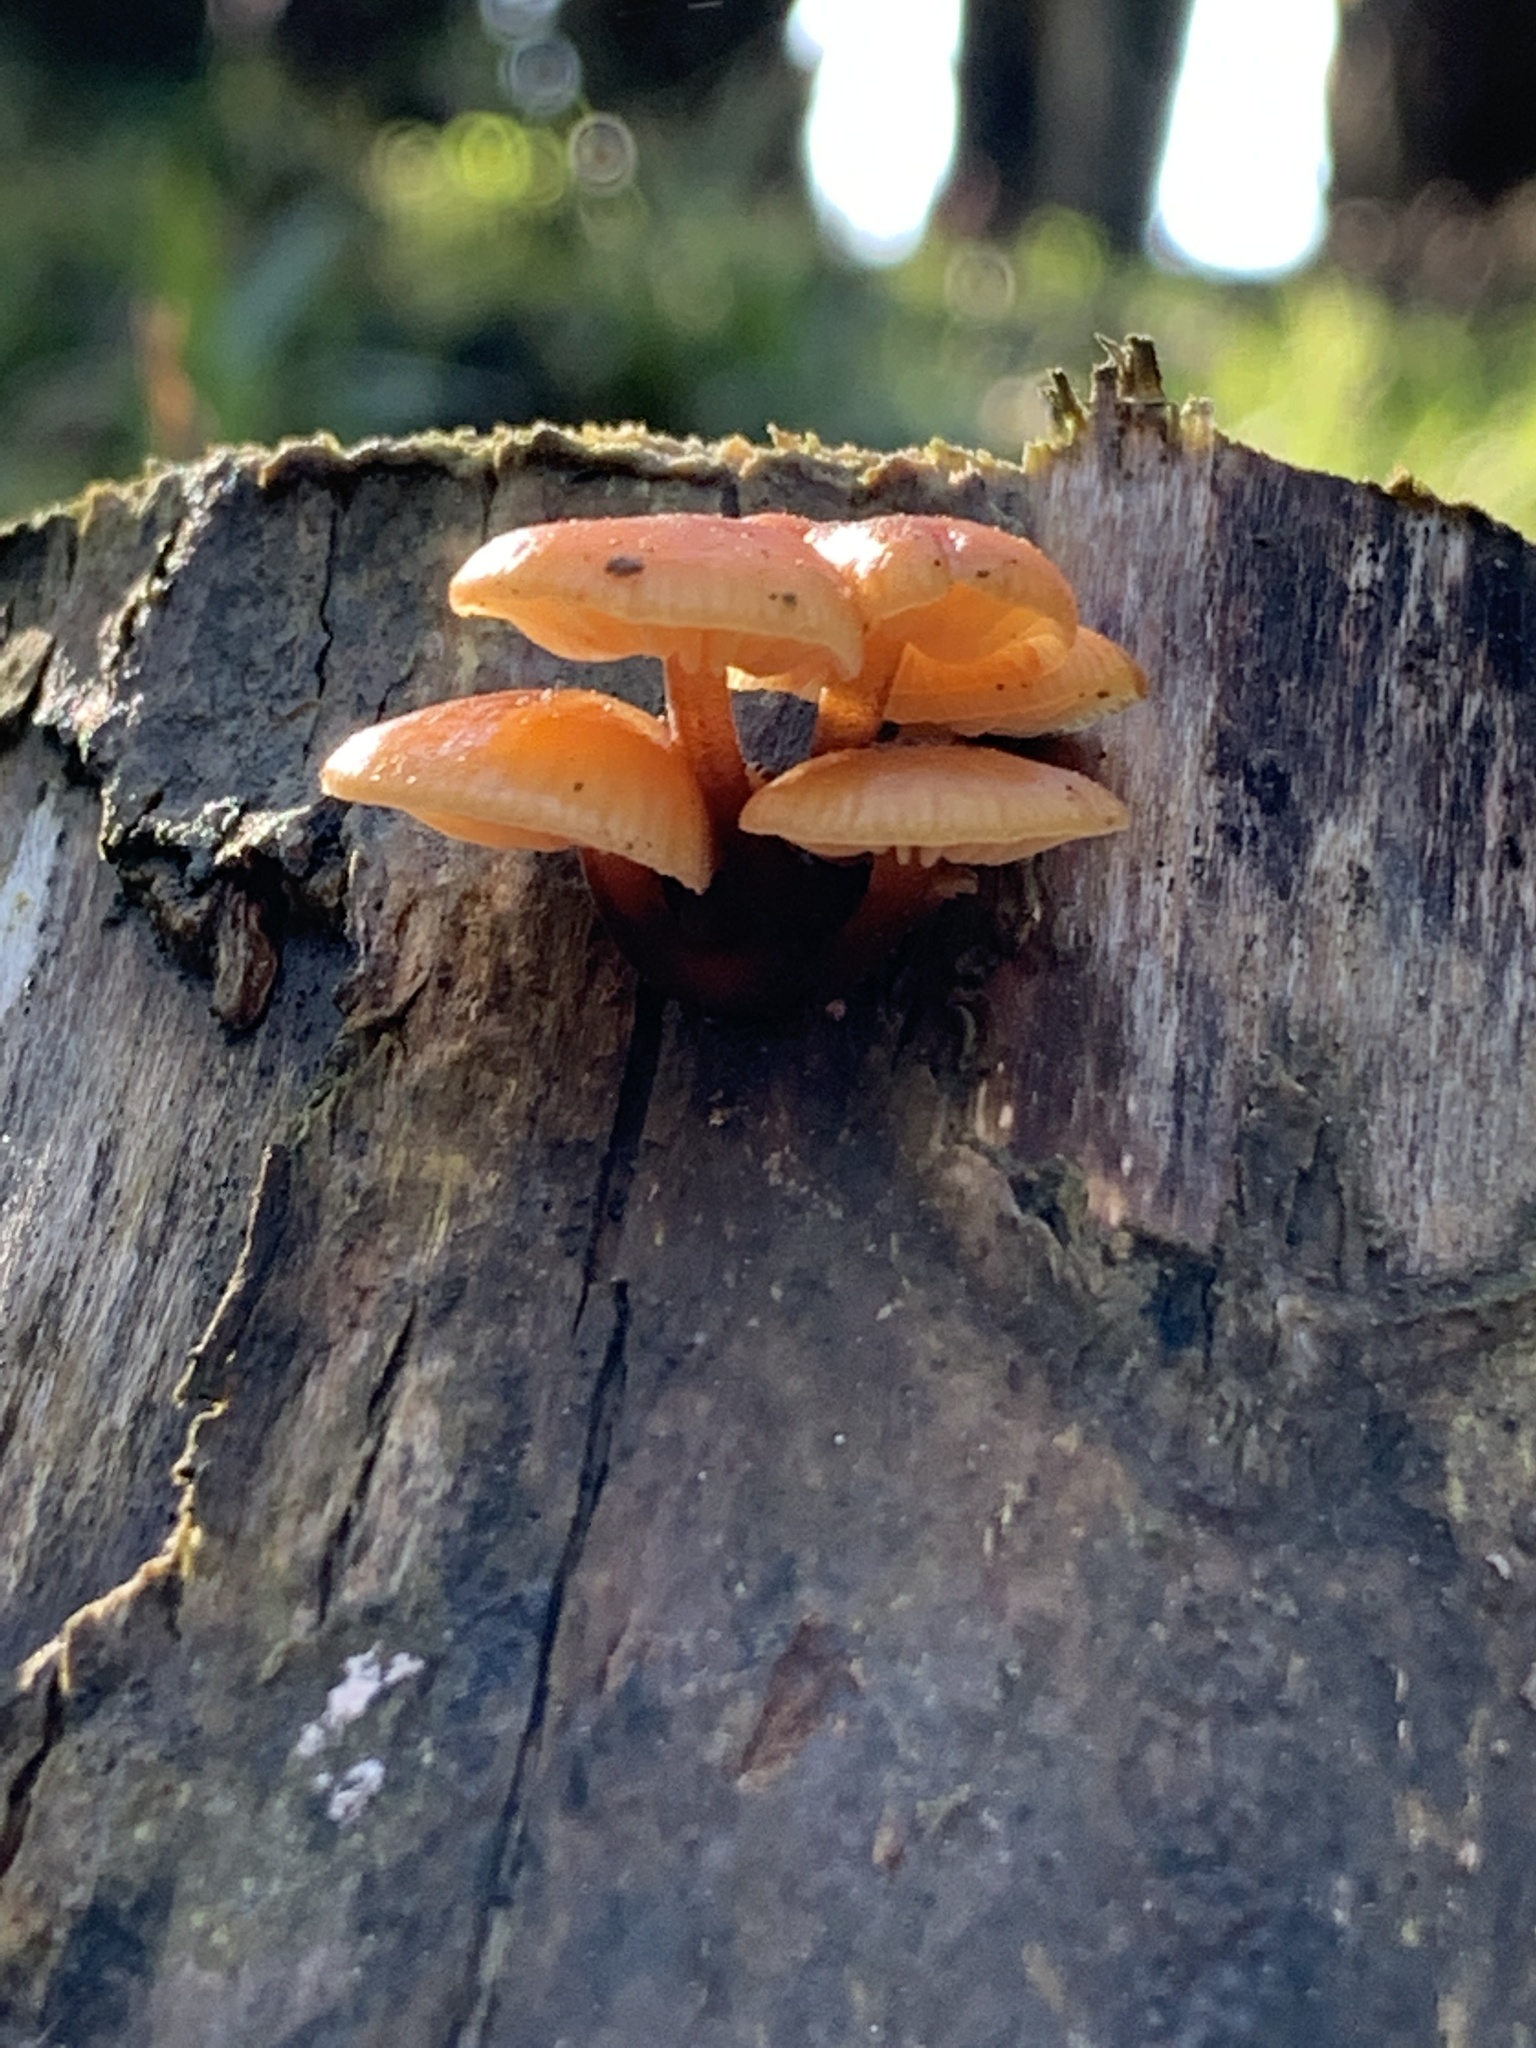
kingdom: Fungi
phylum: Basidiomycota
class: Agaricomycetes
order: Agaricales
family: Physalacriaceae
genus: Flammulina
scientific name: Flammulina velutipes
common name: Velvet shank
